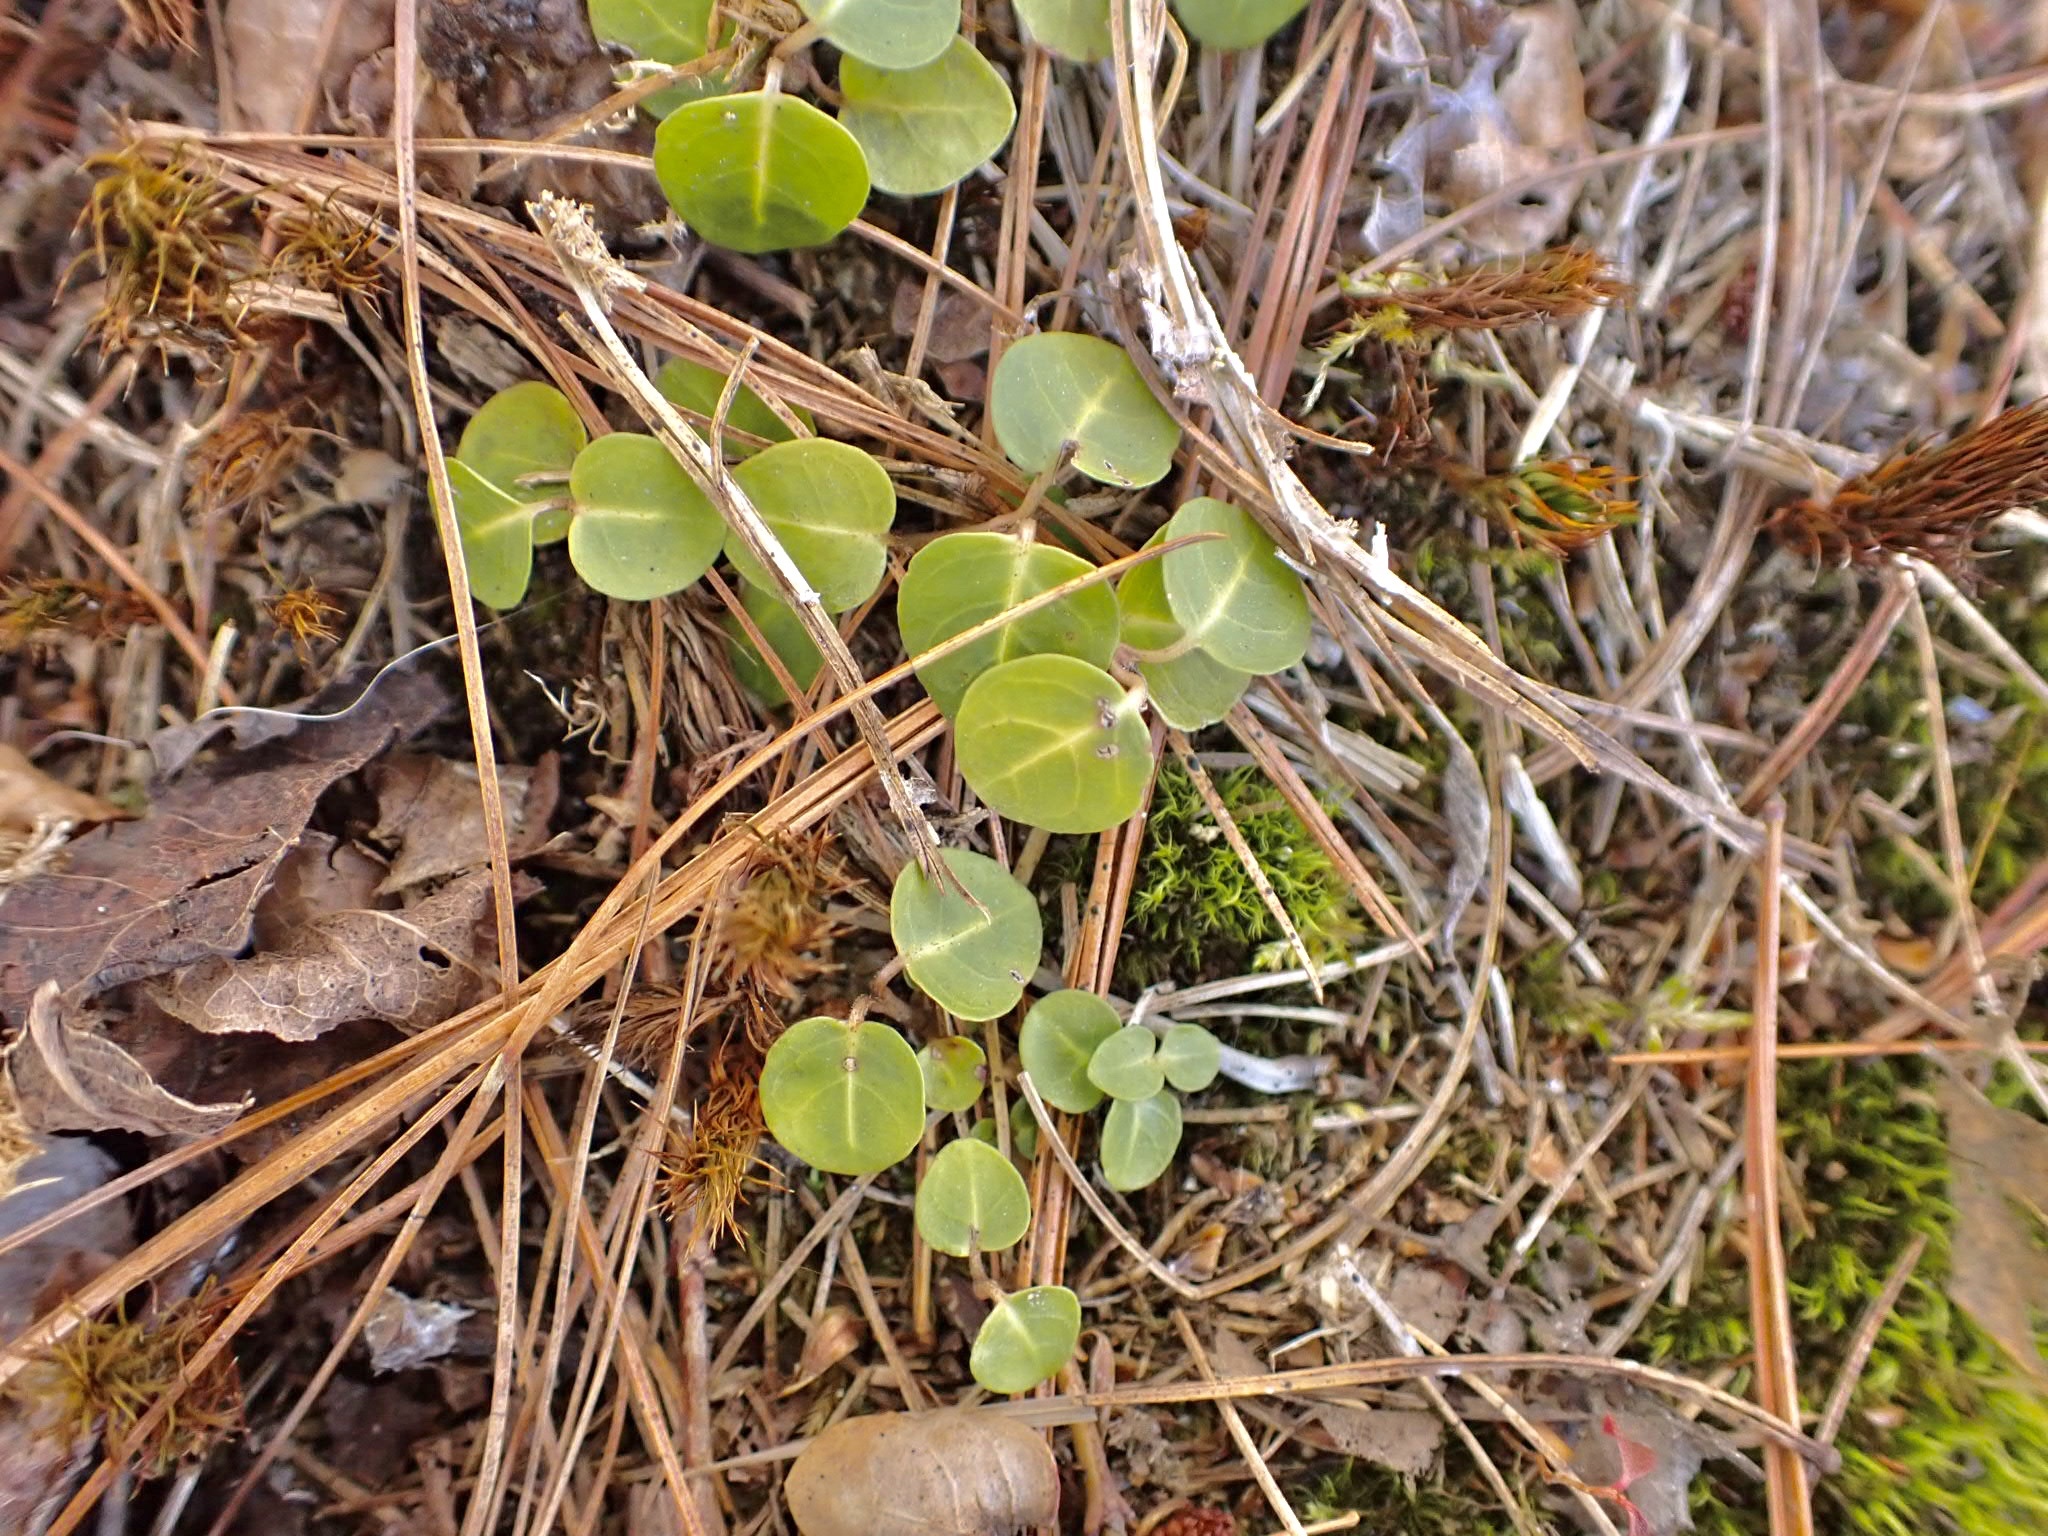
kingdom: Plantae
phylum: Tracheophyta
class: Magnoliopsida
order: Gentianales
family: Rubiaceae
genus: Mitchella
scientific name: Mitchella repens
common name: Partridge-berry
